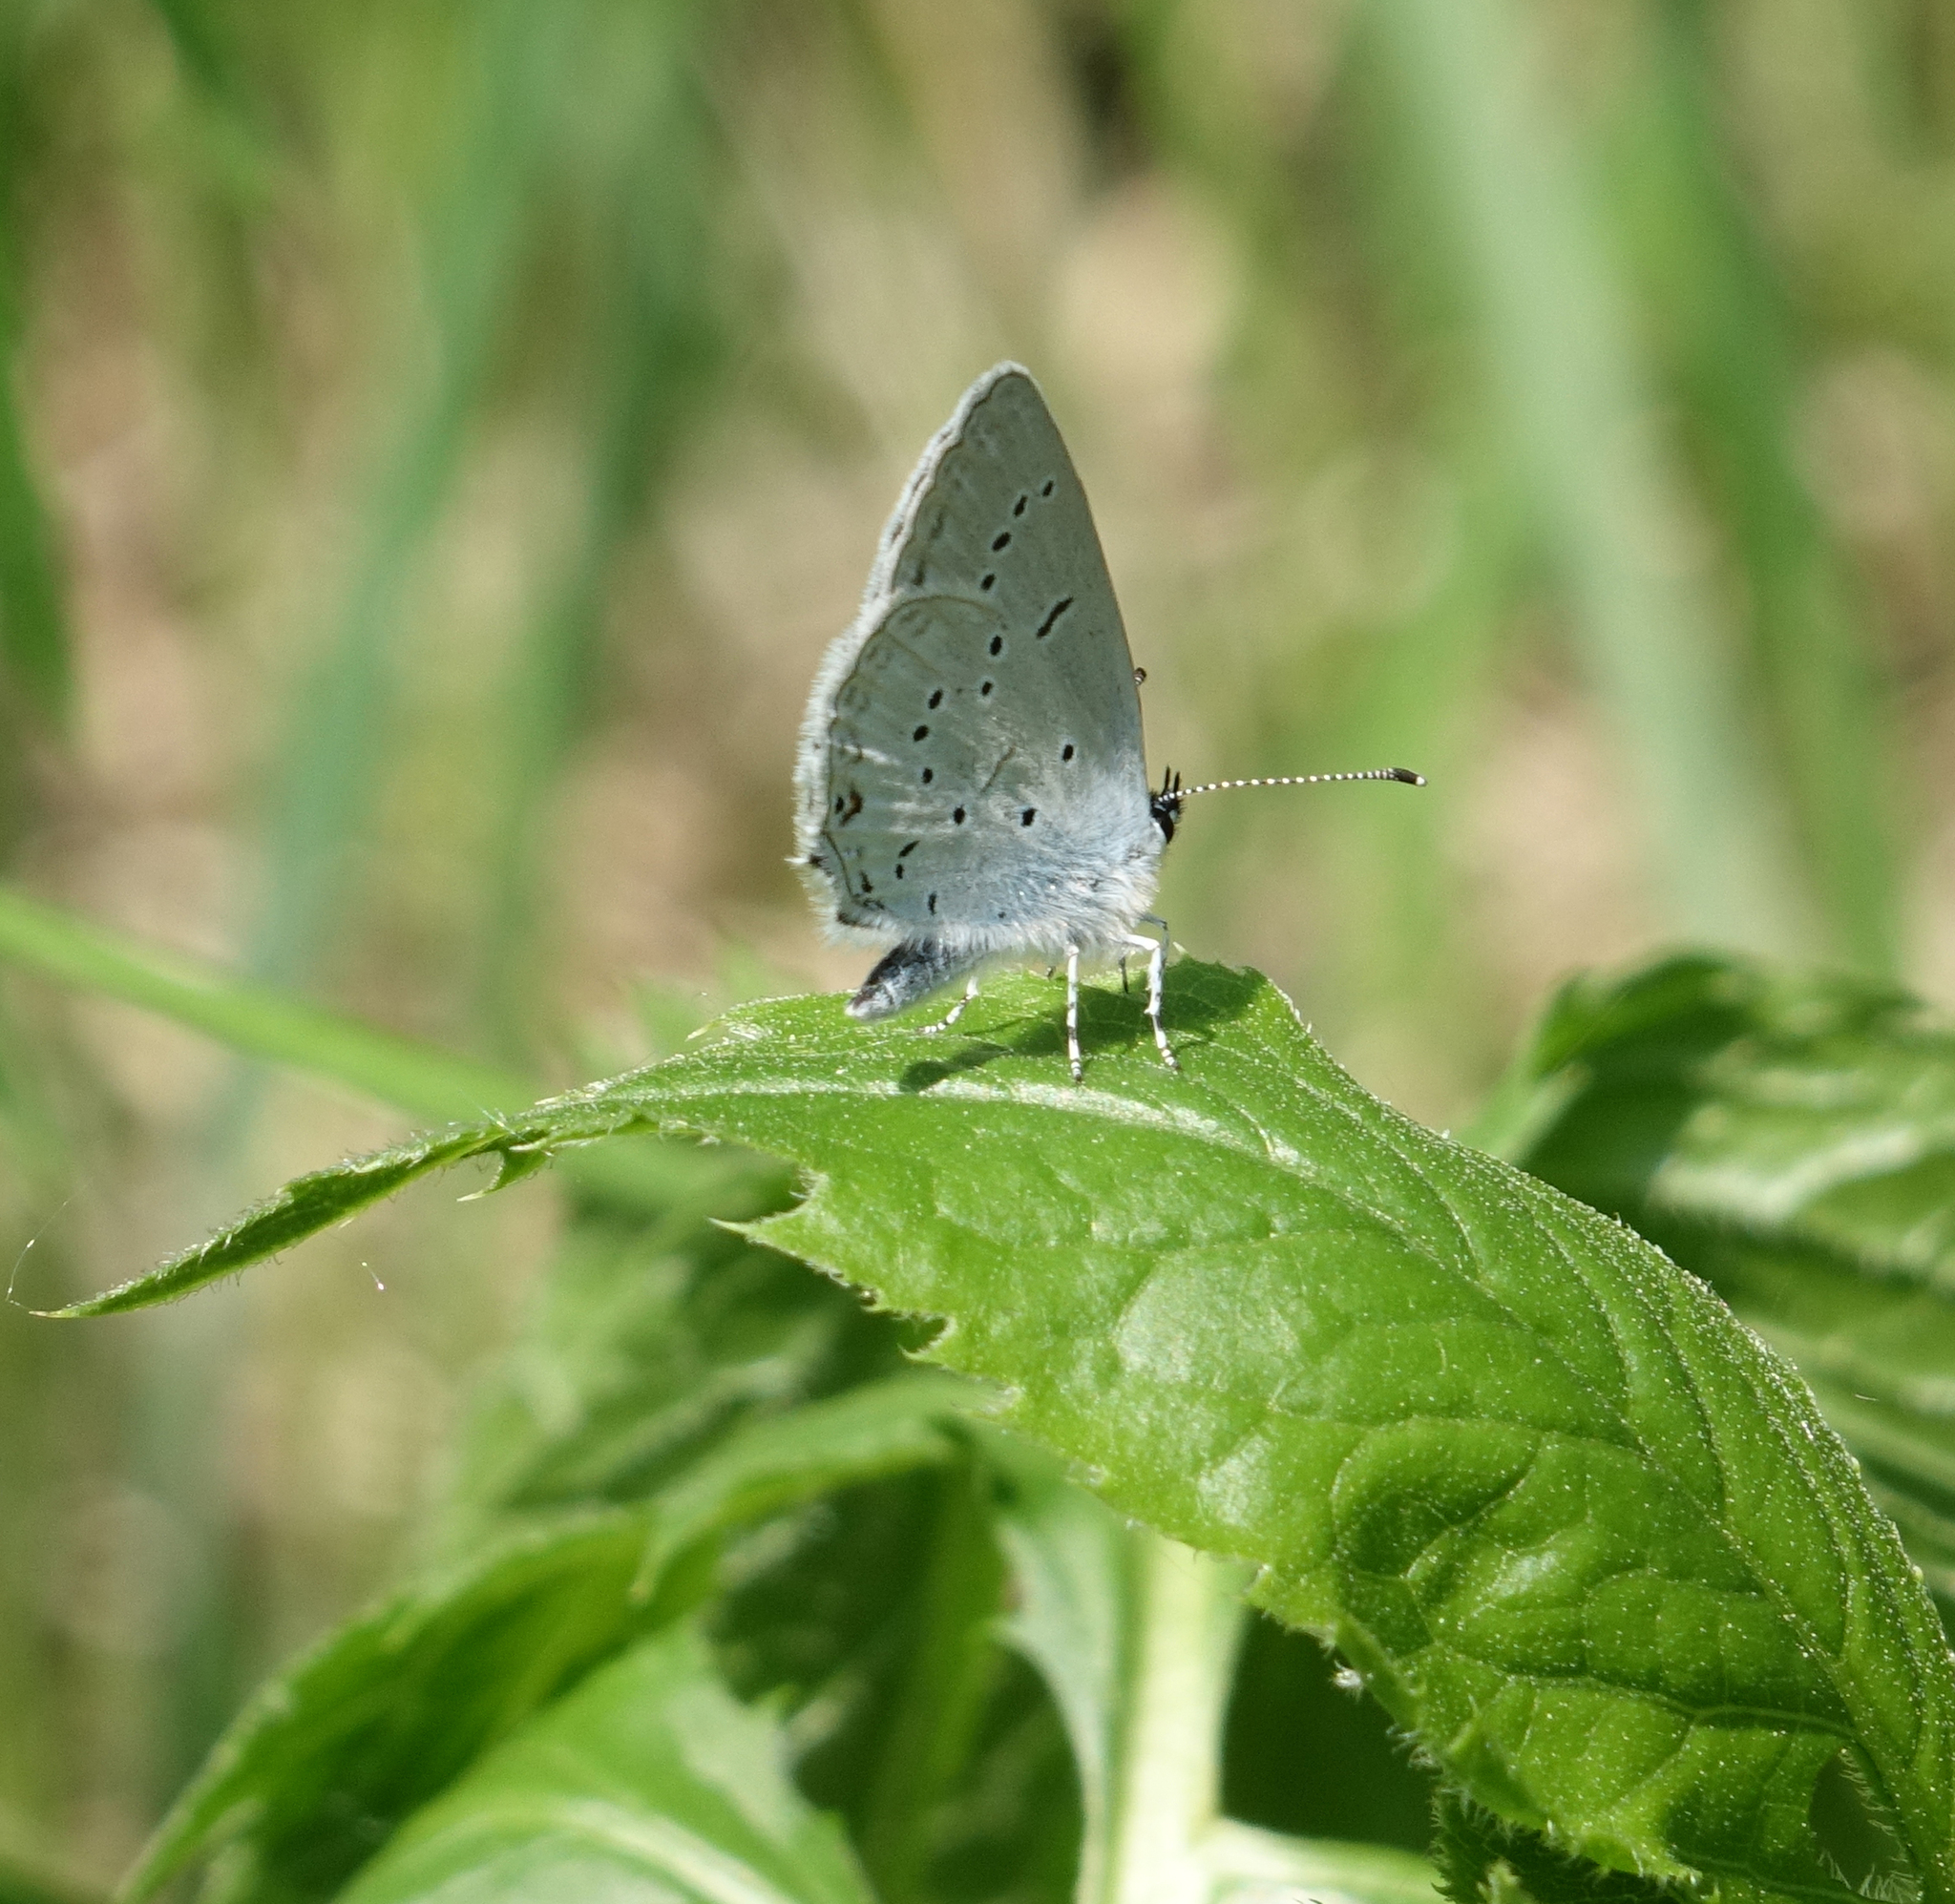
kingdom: Animalia
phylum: Arthropoda
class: Insecta
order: Lepidoptera
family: Lycaenidae
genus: Elkalyce
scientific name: Elkalyce alcetas
